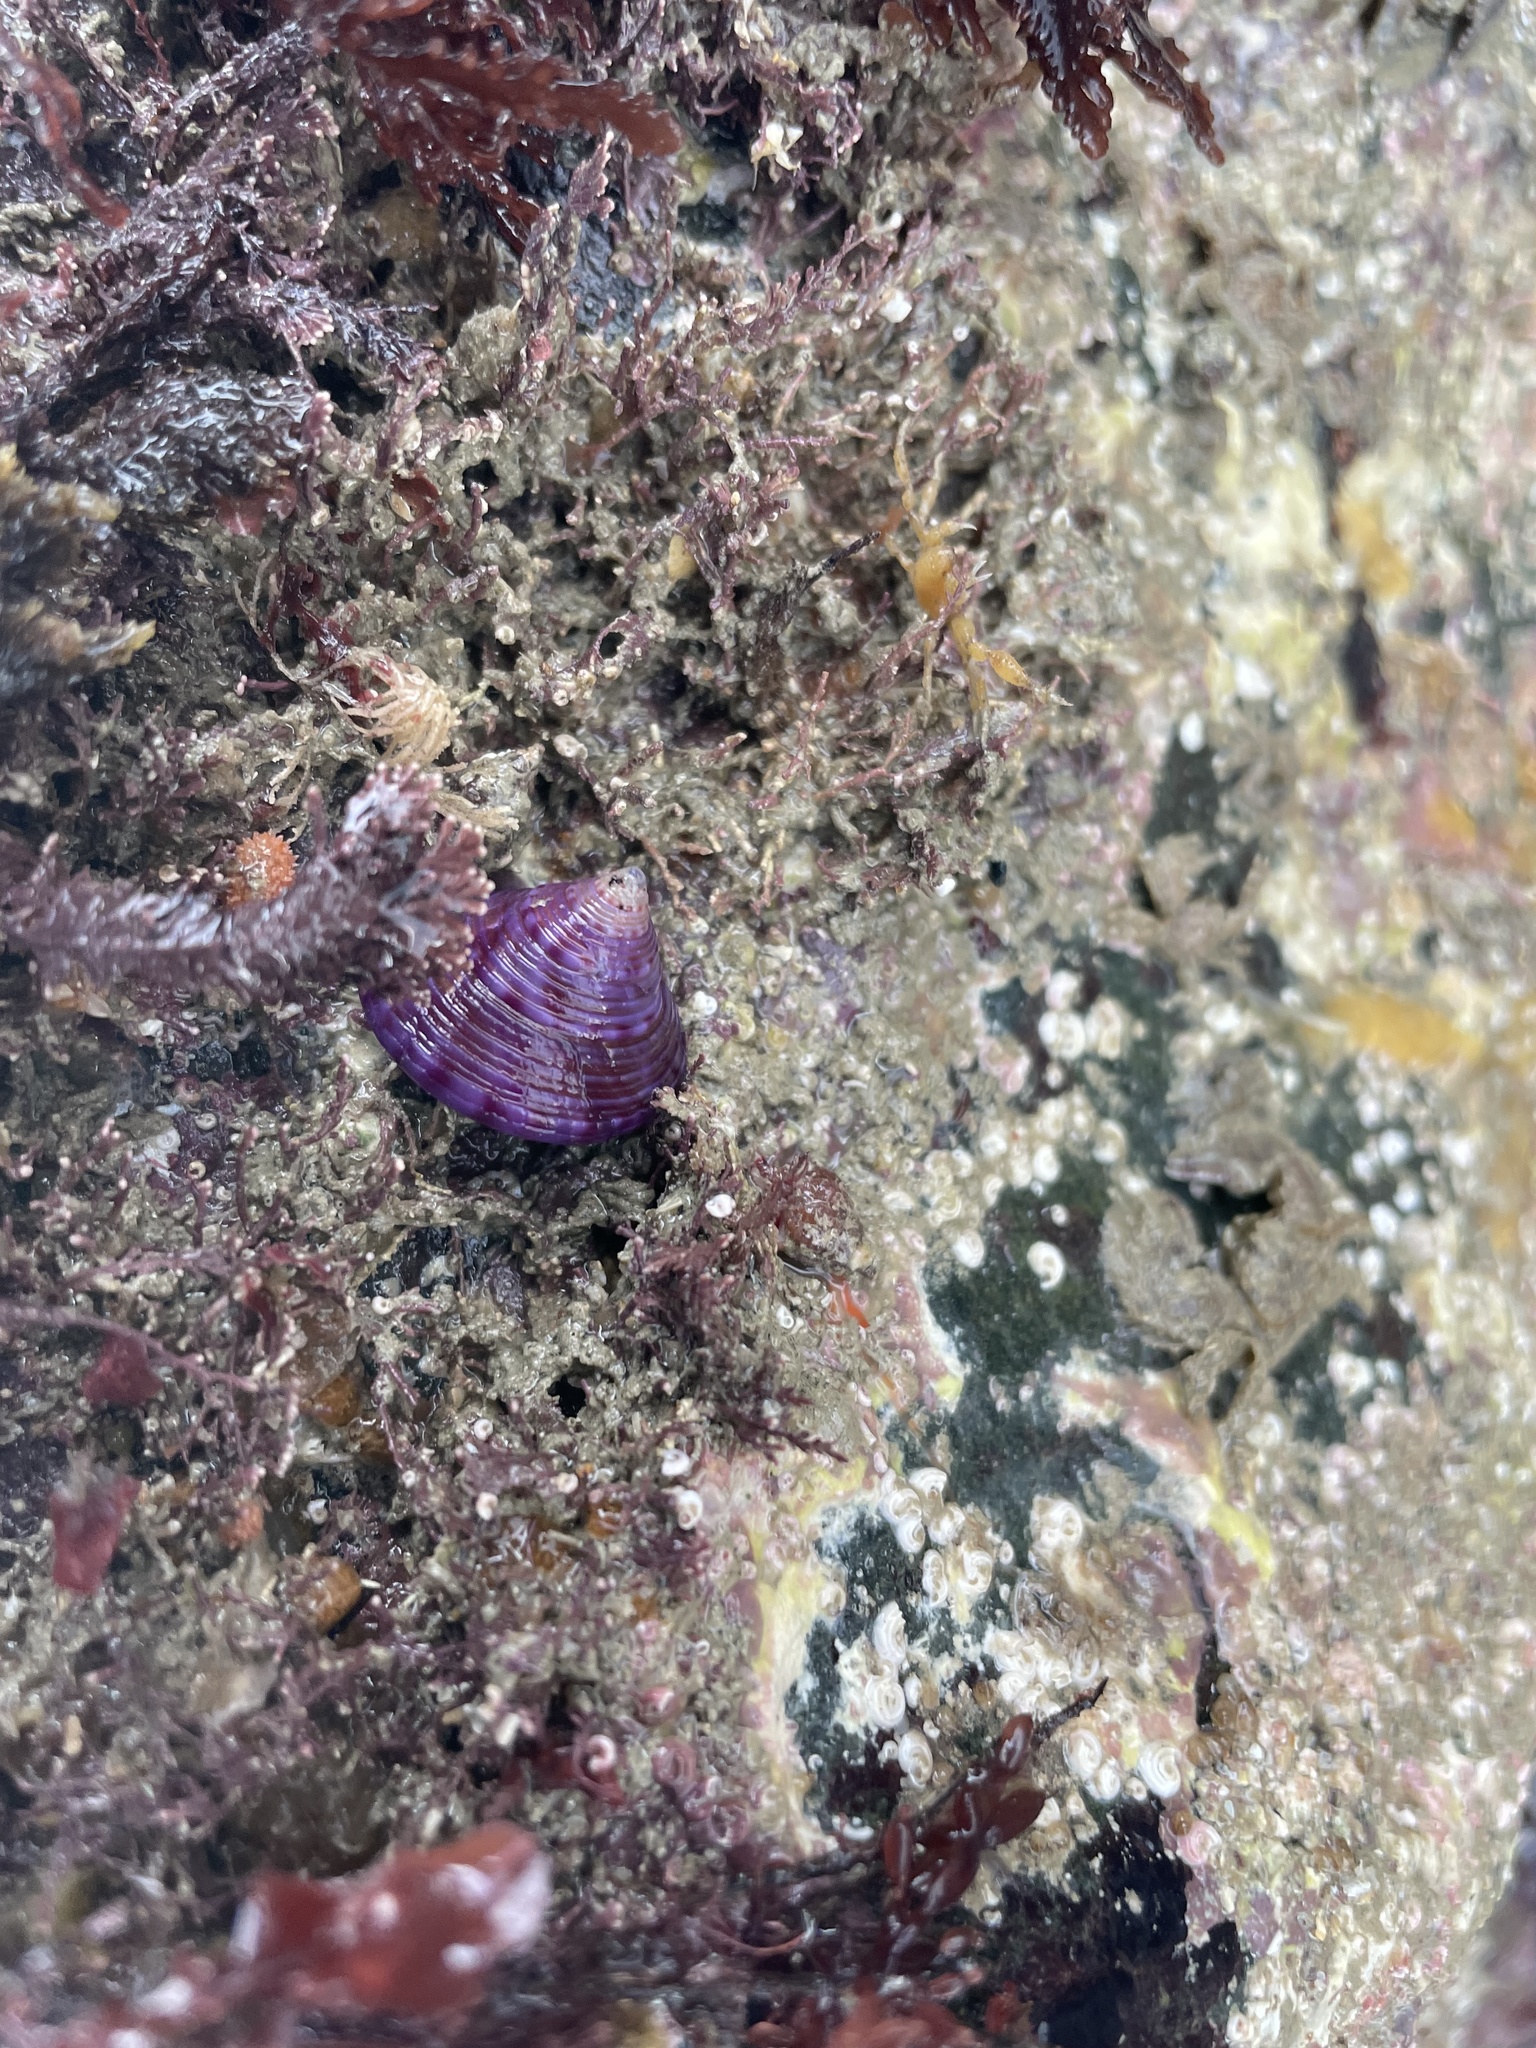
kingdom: Animalia
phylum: Mollusca
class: Gastropoda
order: Trochida
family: Calliostomatidae
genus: Calliostoma
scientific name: Calliostoma zizyphinum
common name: Painted top shell
